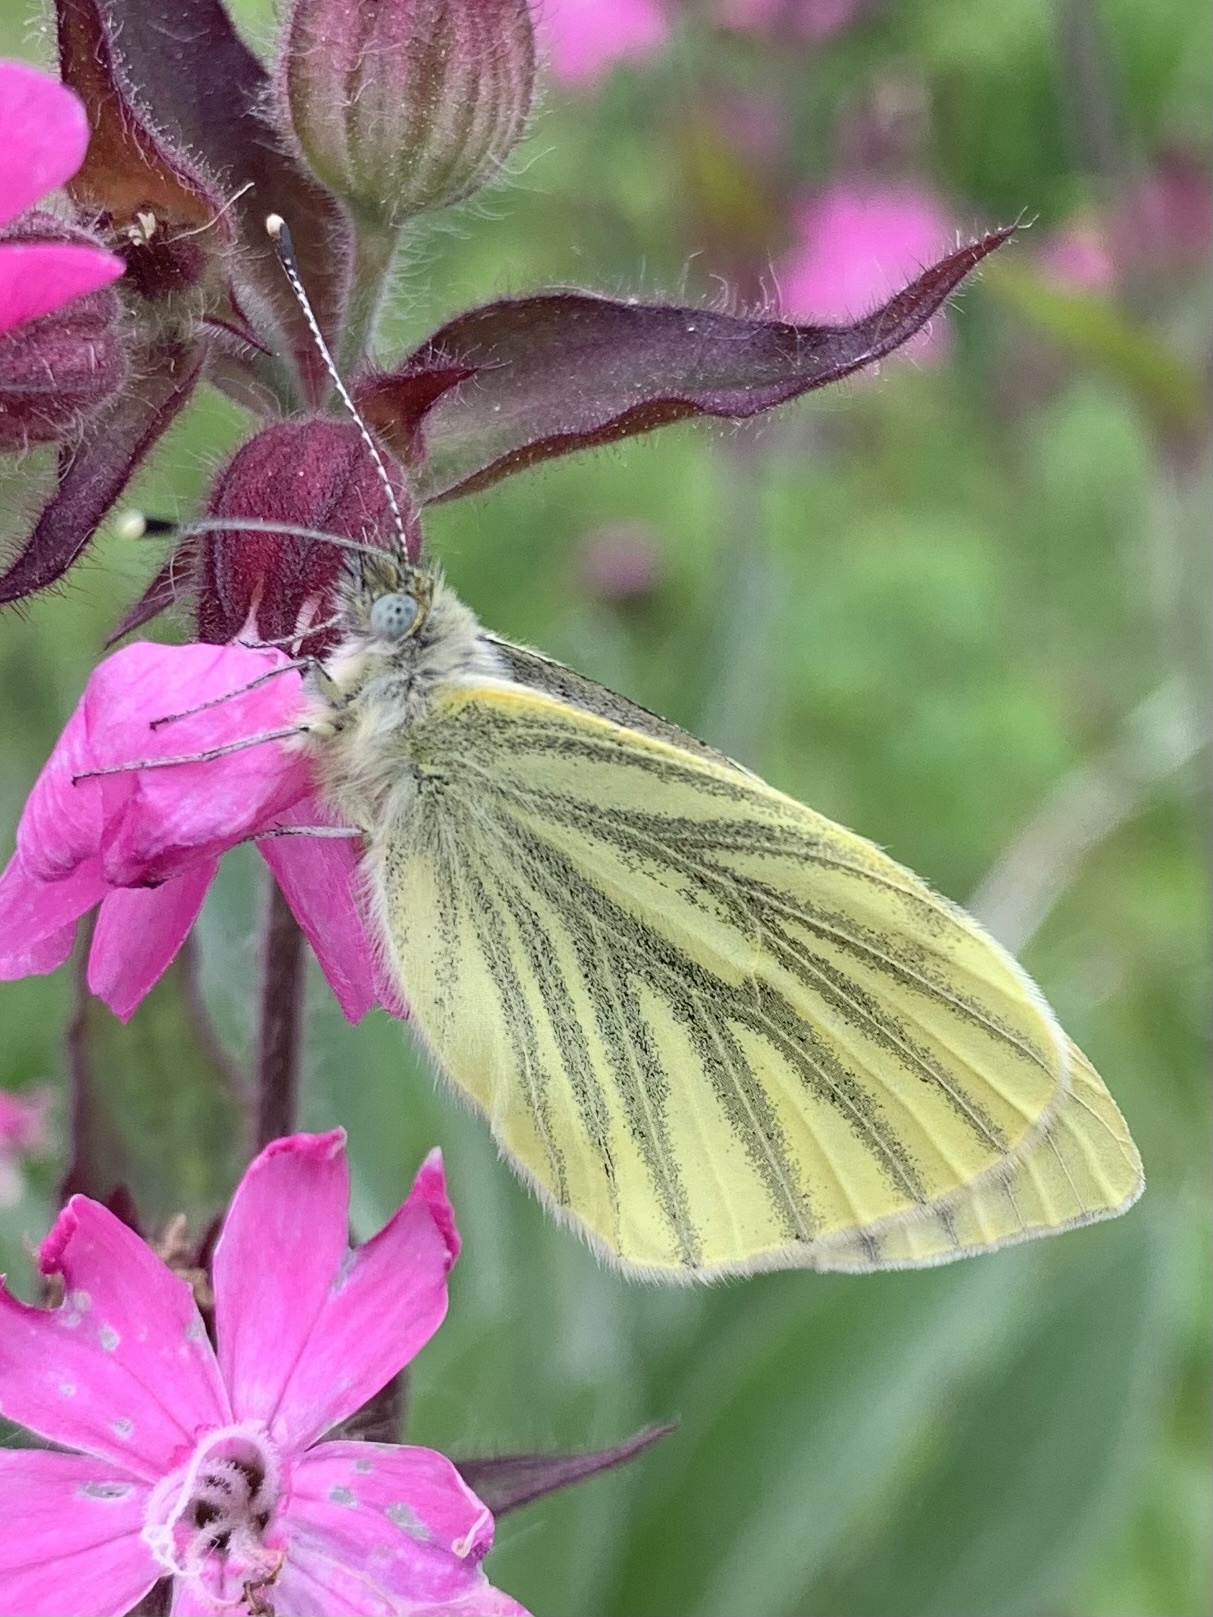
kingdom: Animalia
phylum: Arthropoda
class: Insecta
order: Lepidoptera
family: Pieridae
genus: Pieris
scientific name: Pieris napi
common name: Green-veined white
